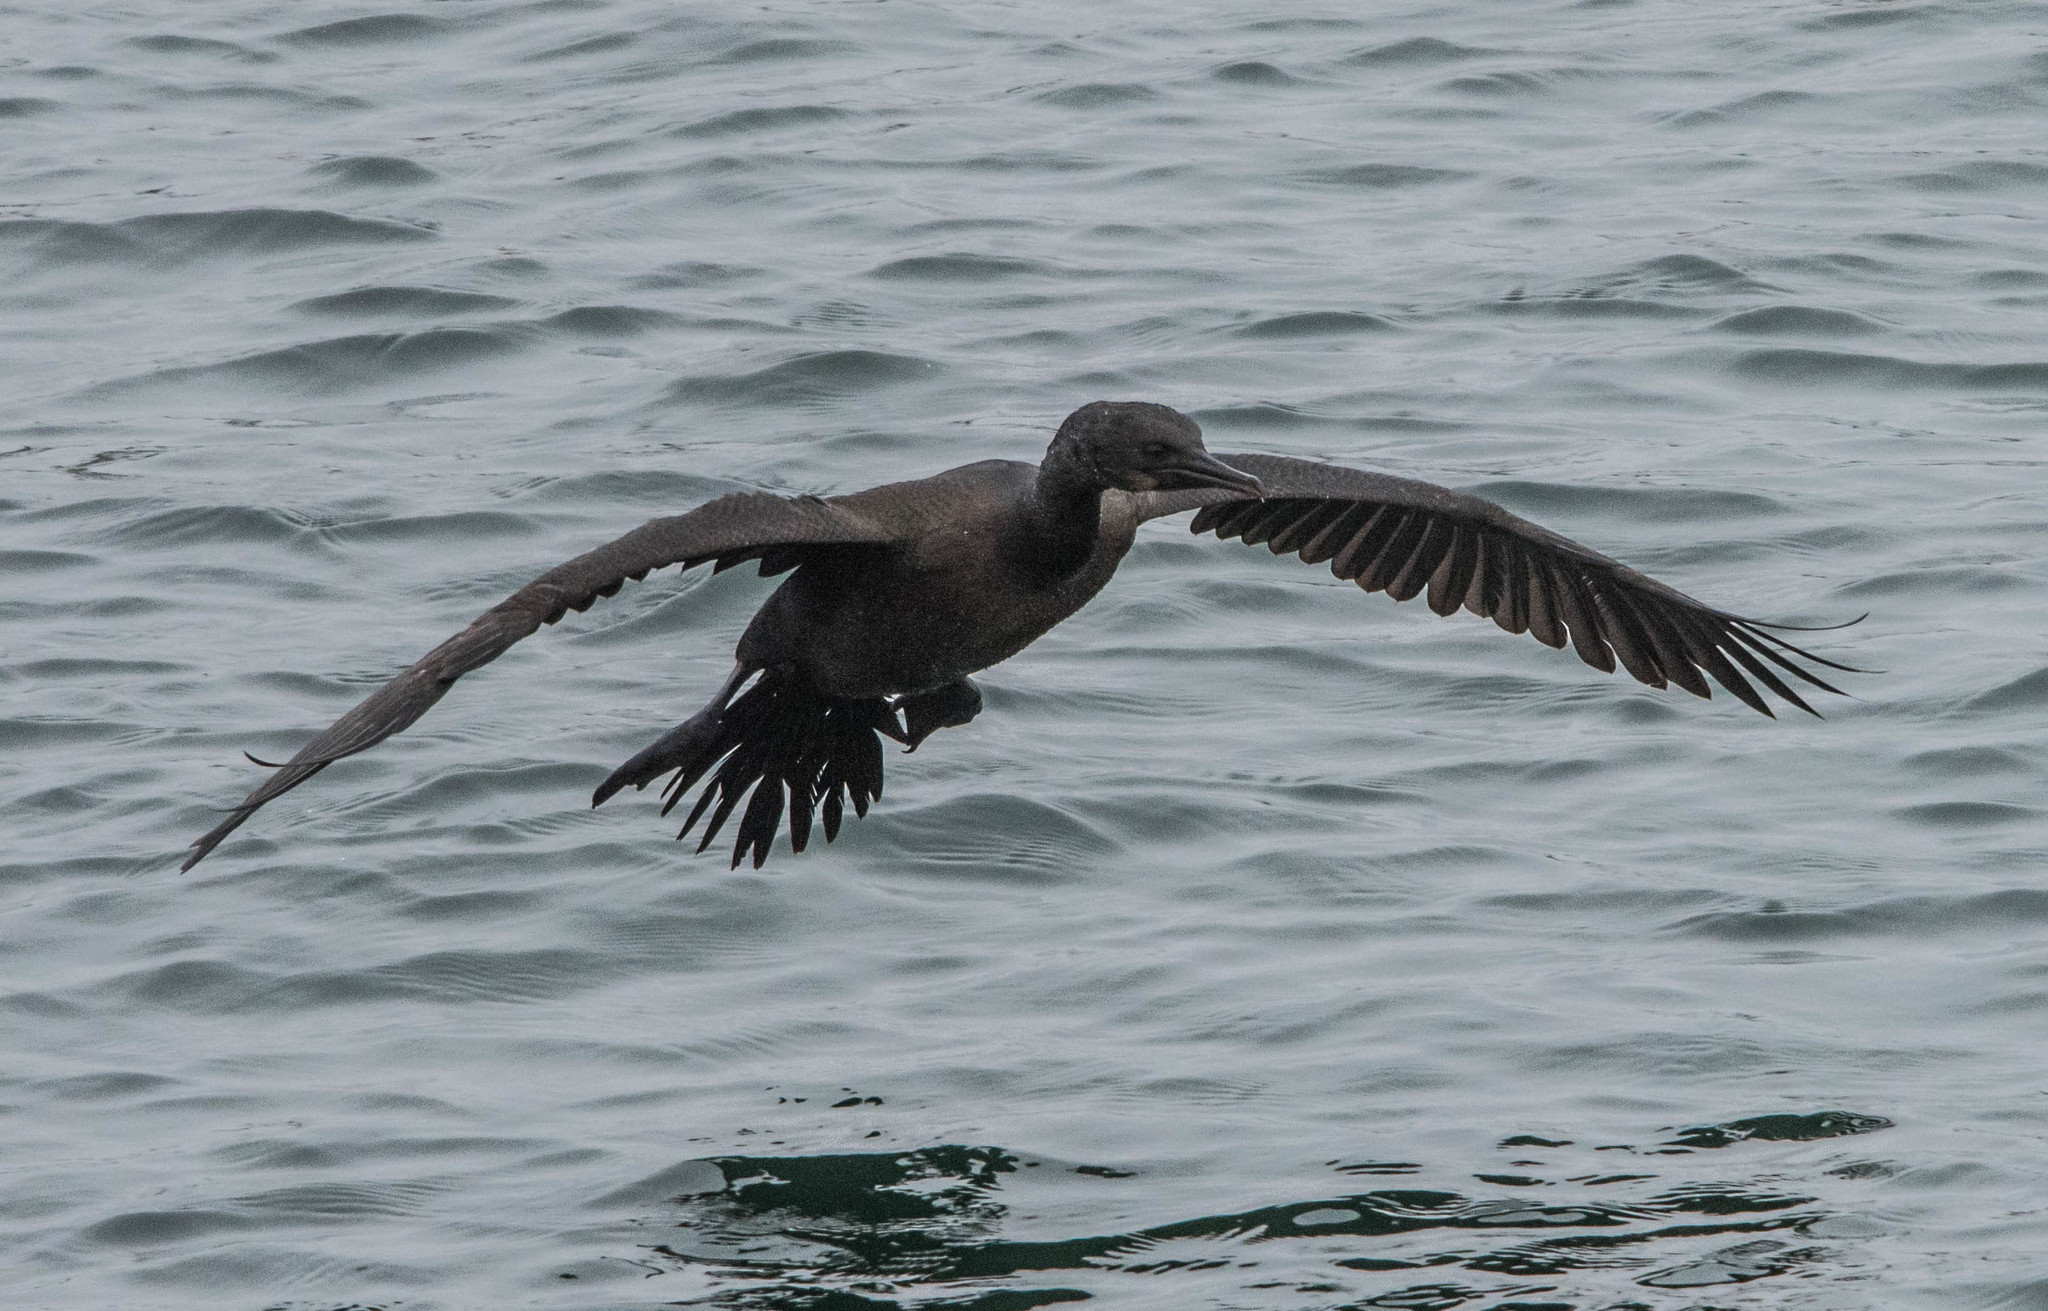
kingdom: Animalia
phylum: Chordata
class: Aves
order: Suliformes
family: Phalacrocoracidae
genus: Urile
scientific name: Urile penicillatus
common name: Brandt's cormorant
